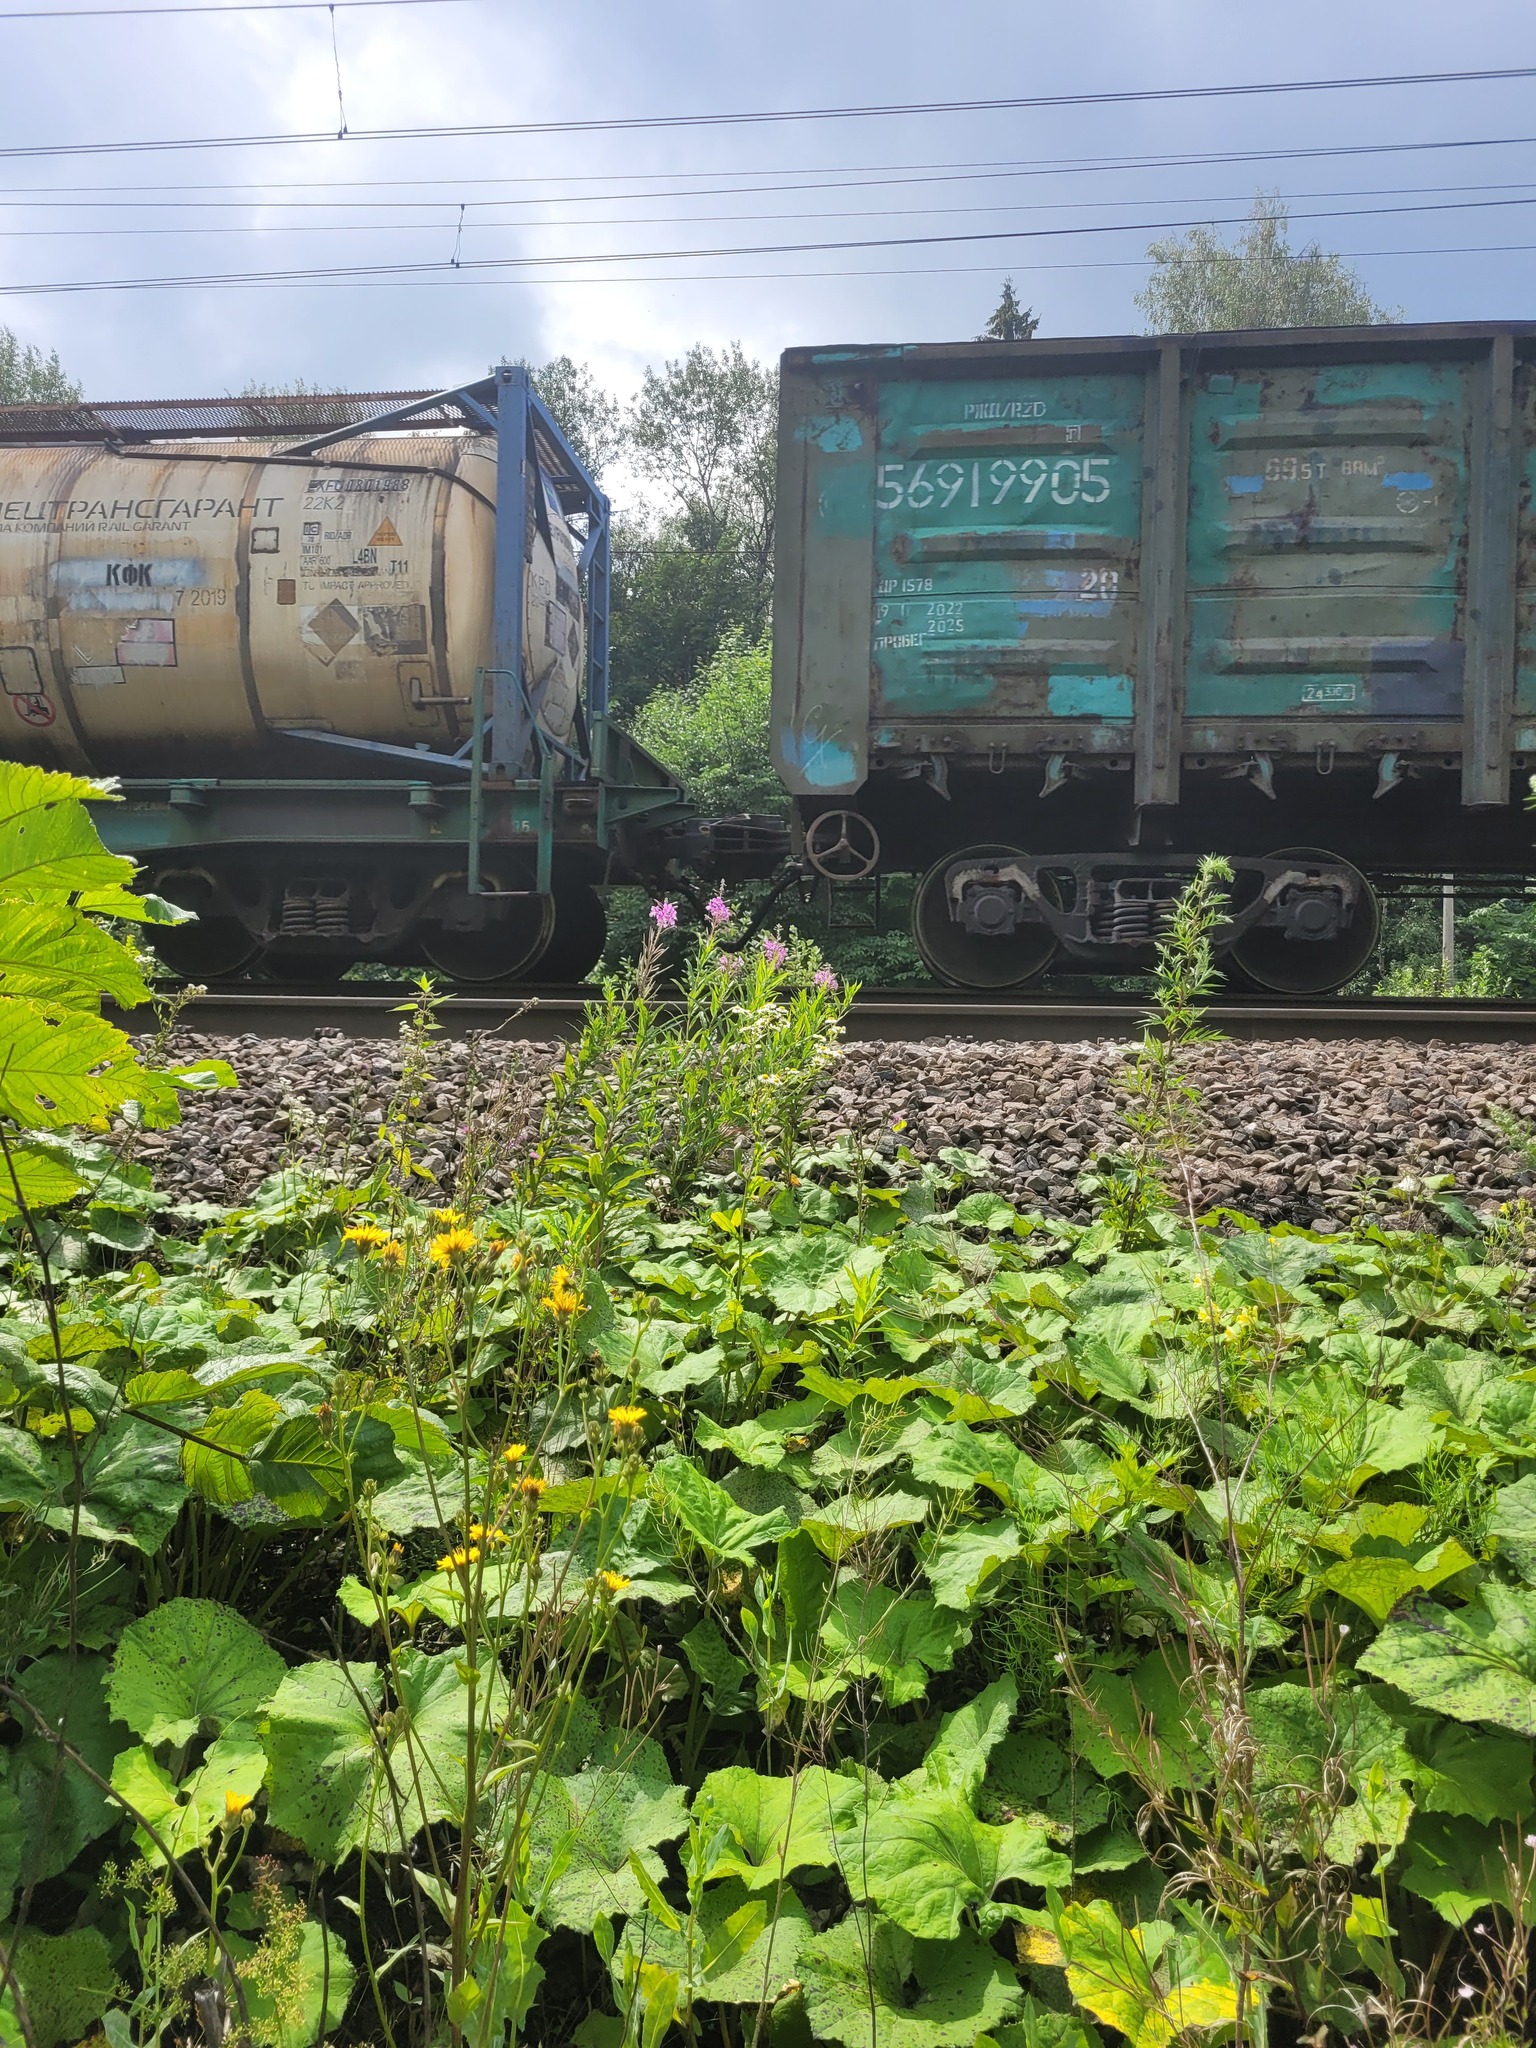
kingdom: Plantae
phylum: Tracheophyta
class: Magnoliopsida
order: Myrtales
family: Onagraceae
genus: Chamaenerion
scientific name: Chamaenerion angustifolium
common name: Fireweed
